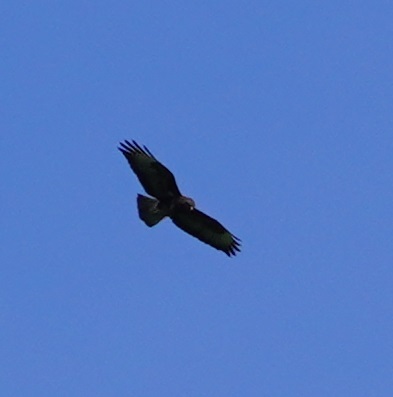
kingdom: Animalia
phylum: Chordata
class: Aves
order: Accipitriformes
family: Accipitridae
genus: Buteo
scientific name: Buteo buteo
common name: Common buzzard
